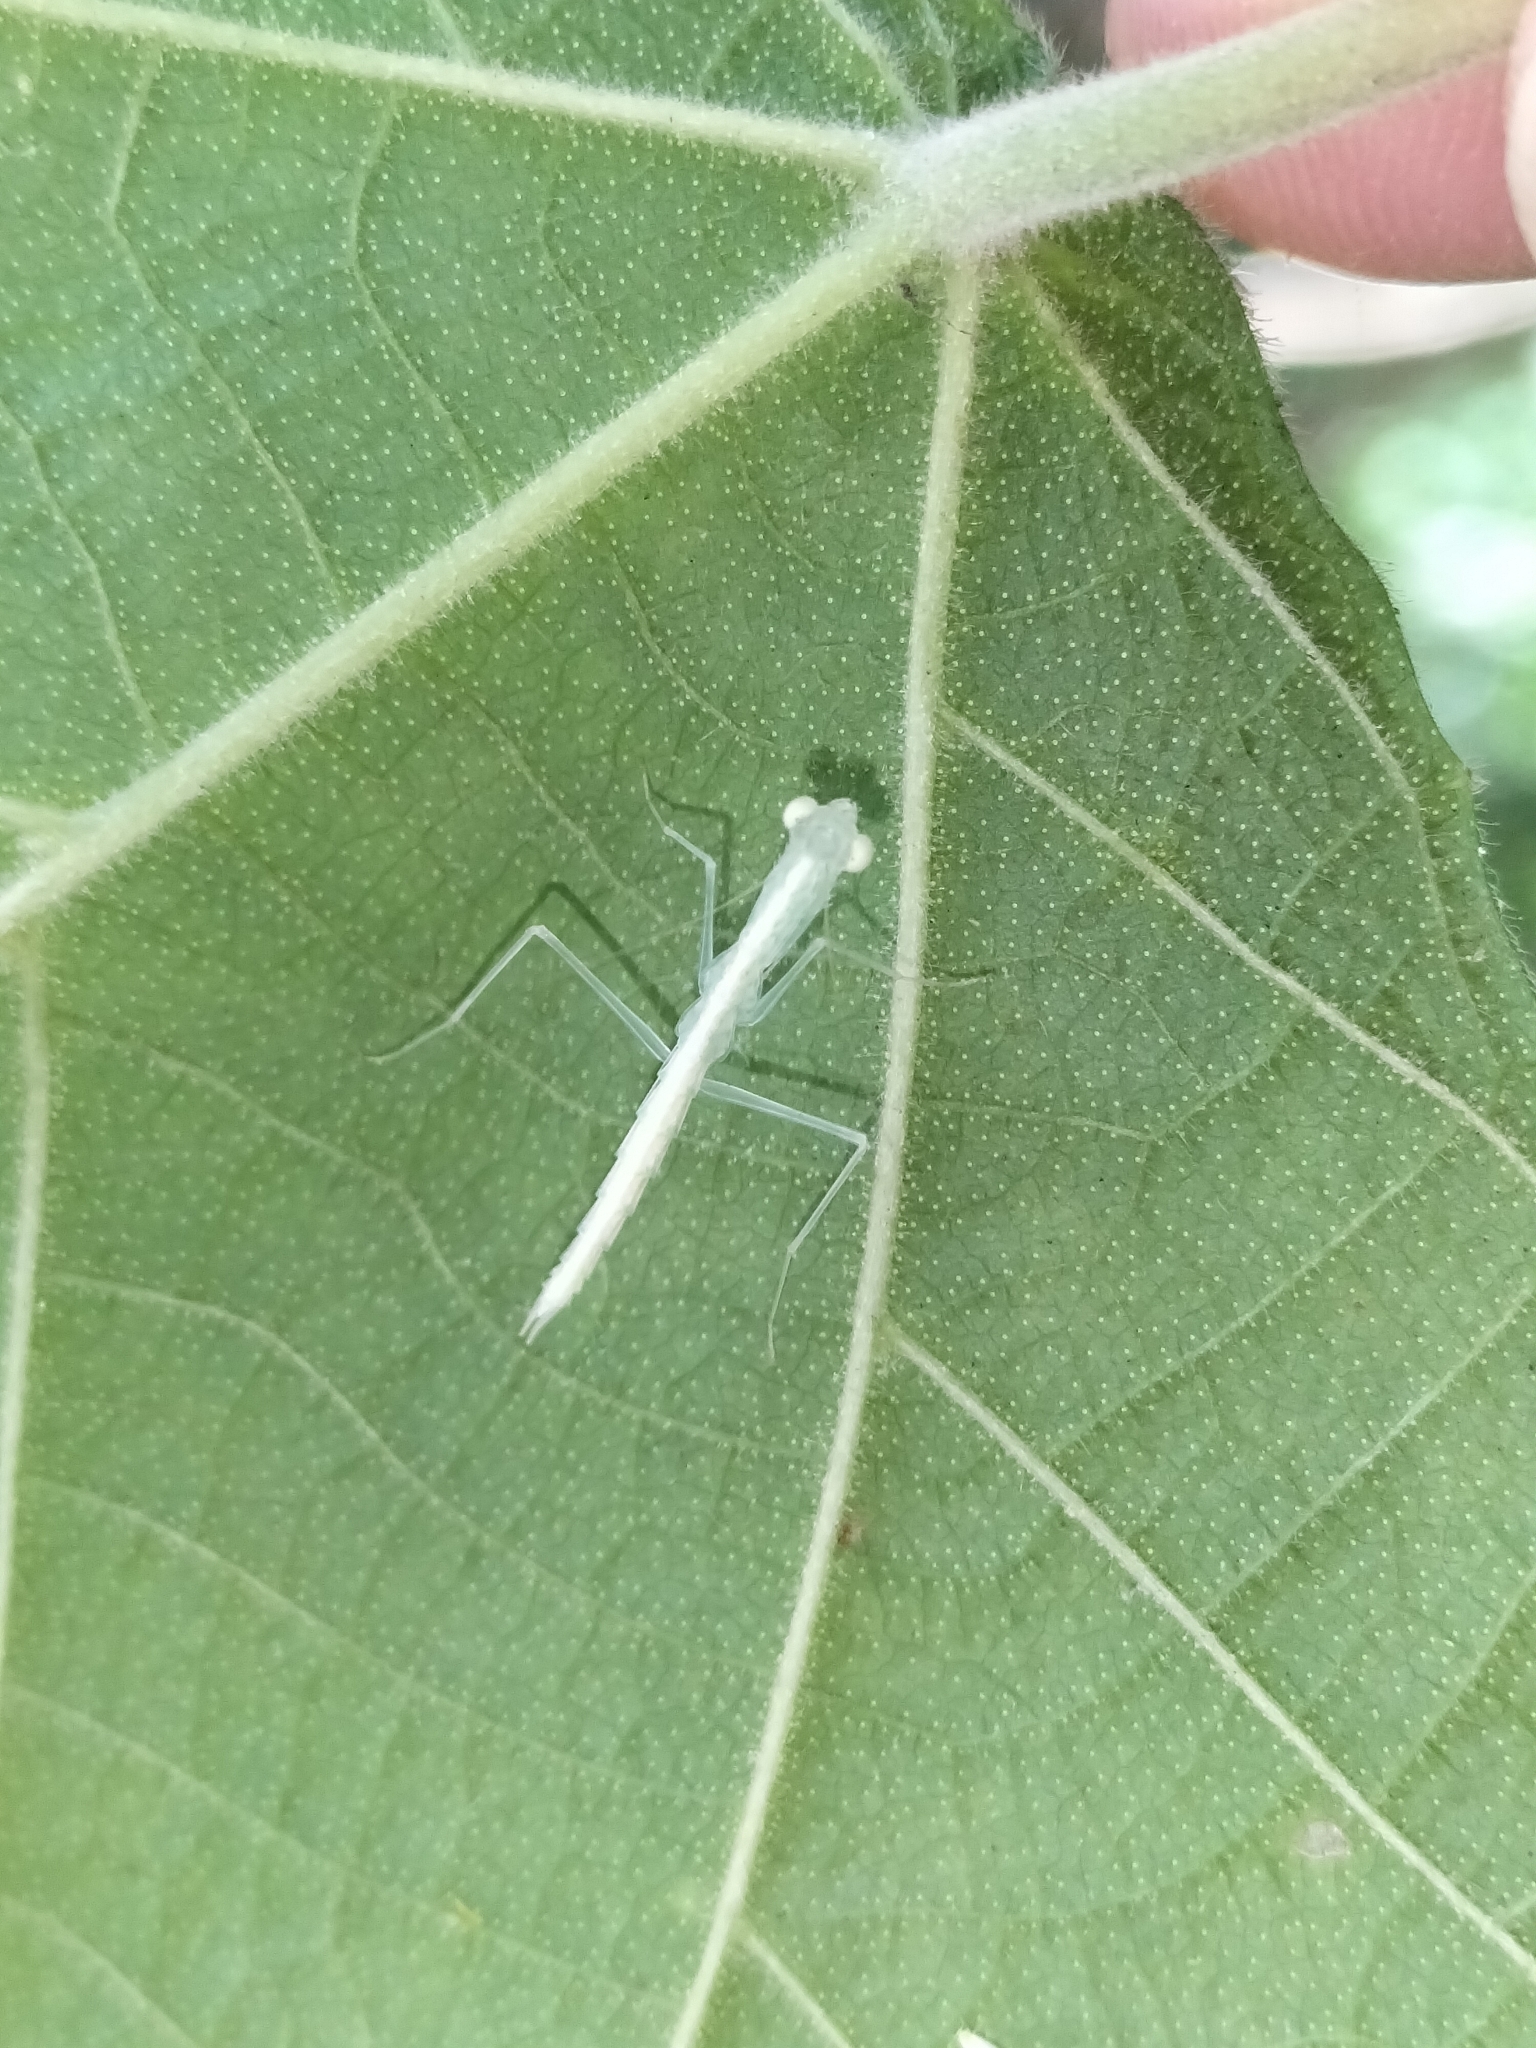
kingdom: Animalia
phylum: Arthropoda
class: Insecta
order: Mantodea
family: Nanomantidae
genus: Neomantis
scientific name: Neomantis australis
